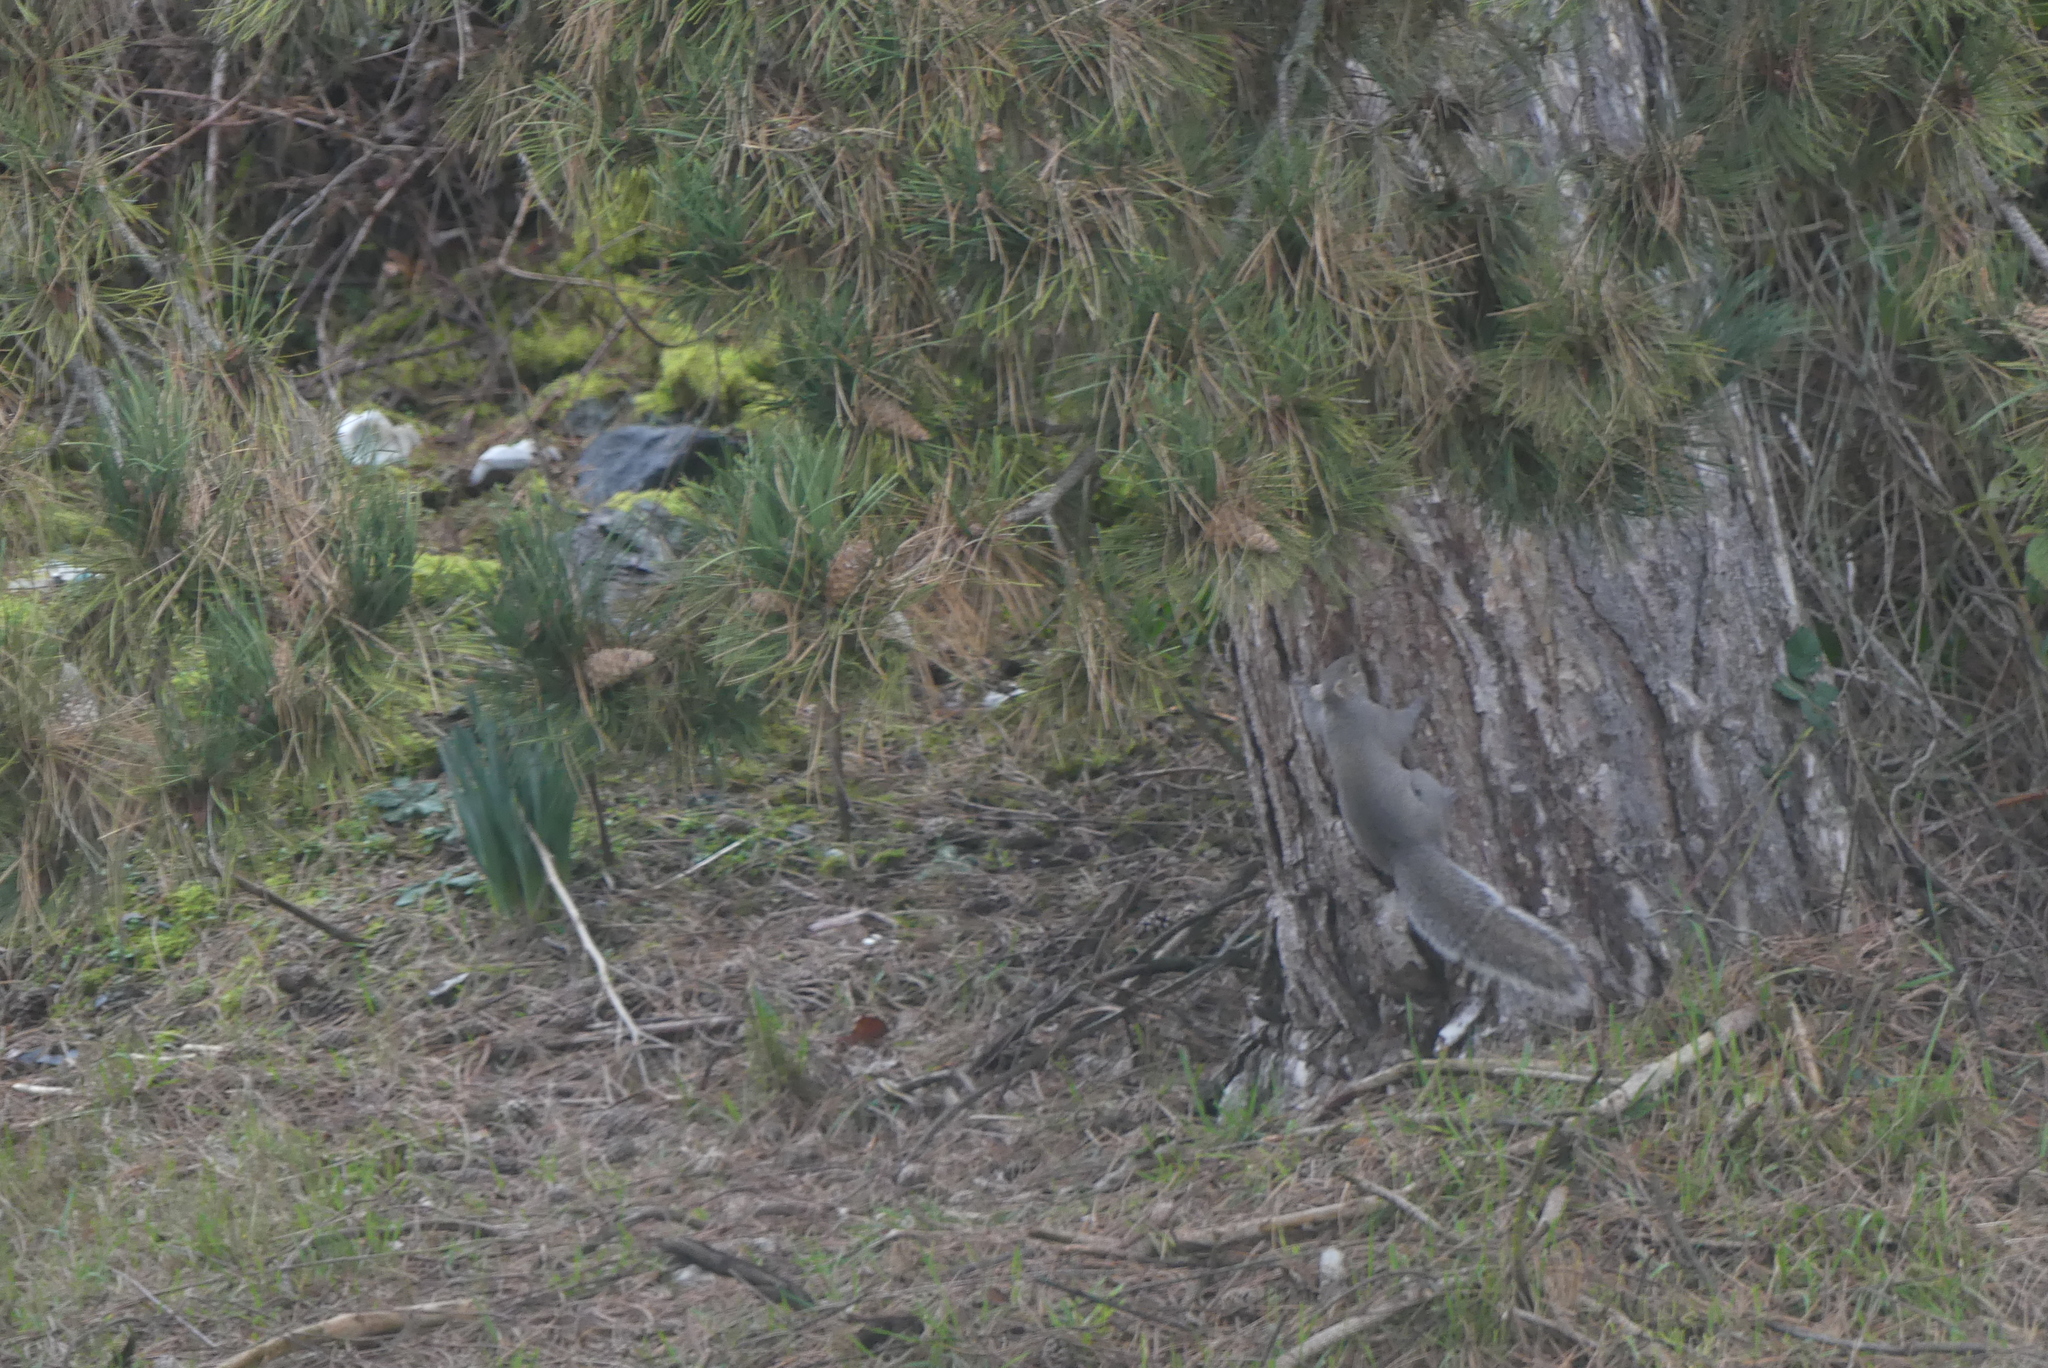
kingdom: Animalia
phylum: Chordata
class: Mammalia
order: Rodentia
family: Sciuridae
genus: Sciurus
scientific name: Sciurus carolinensis
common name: Eastern gray squirrel
